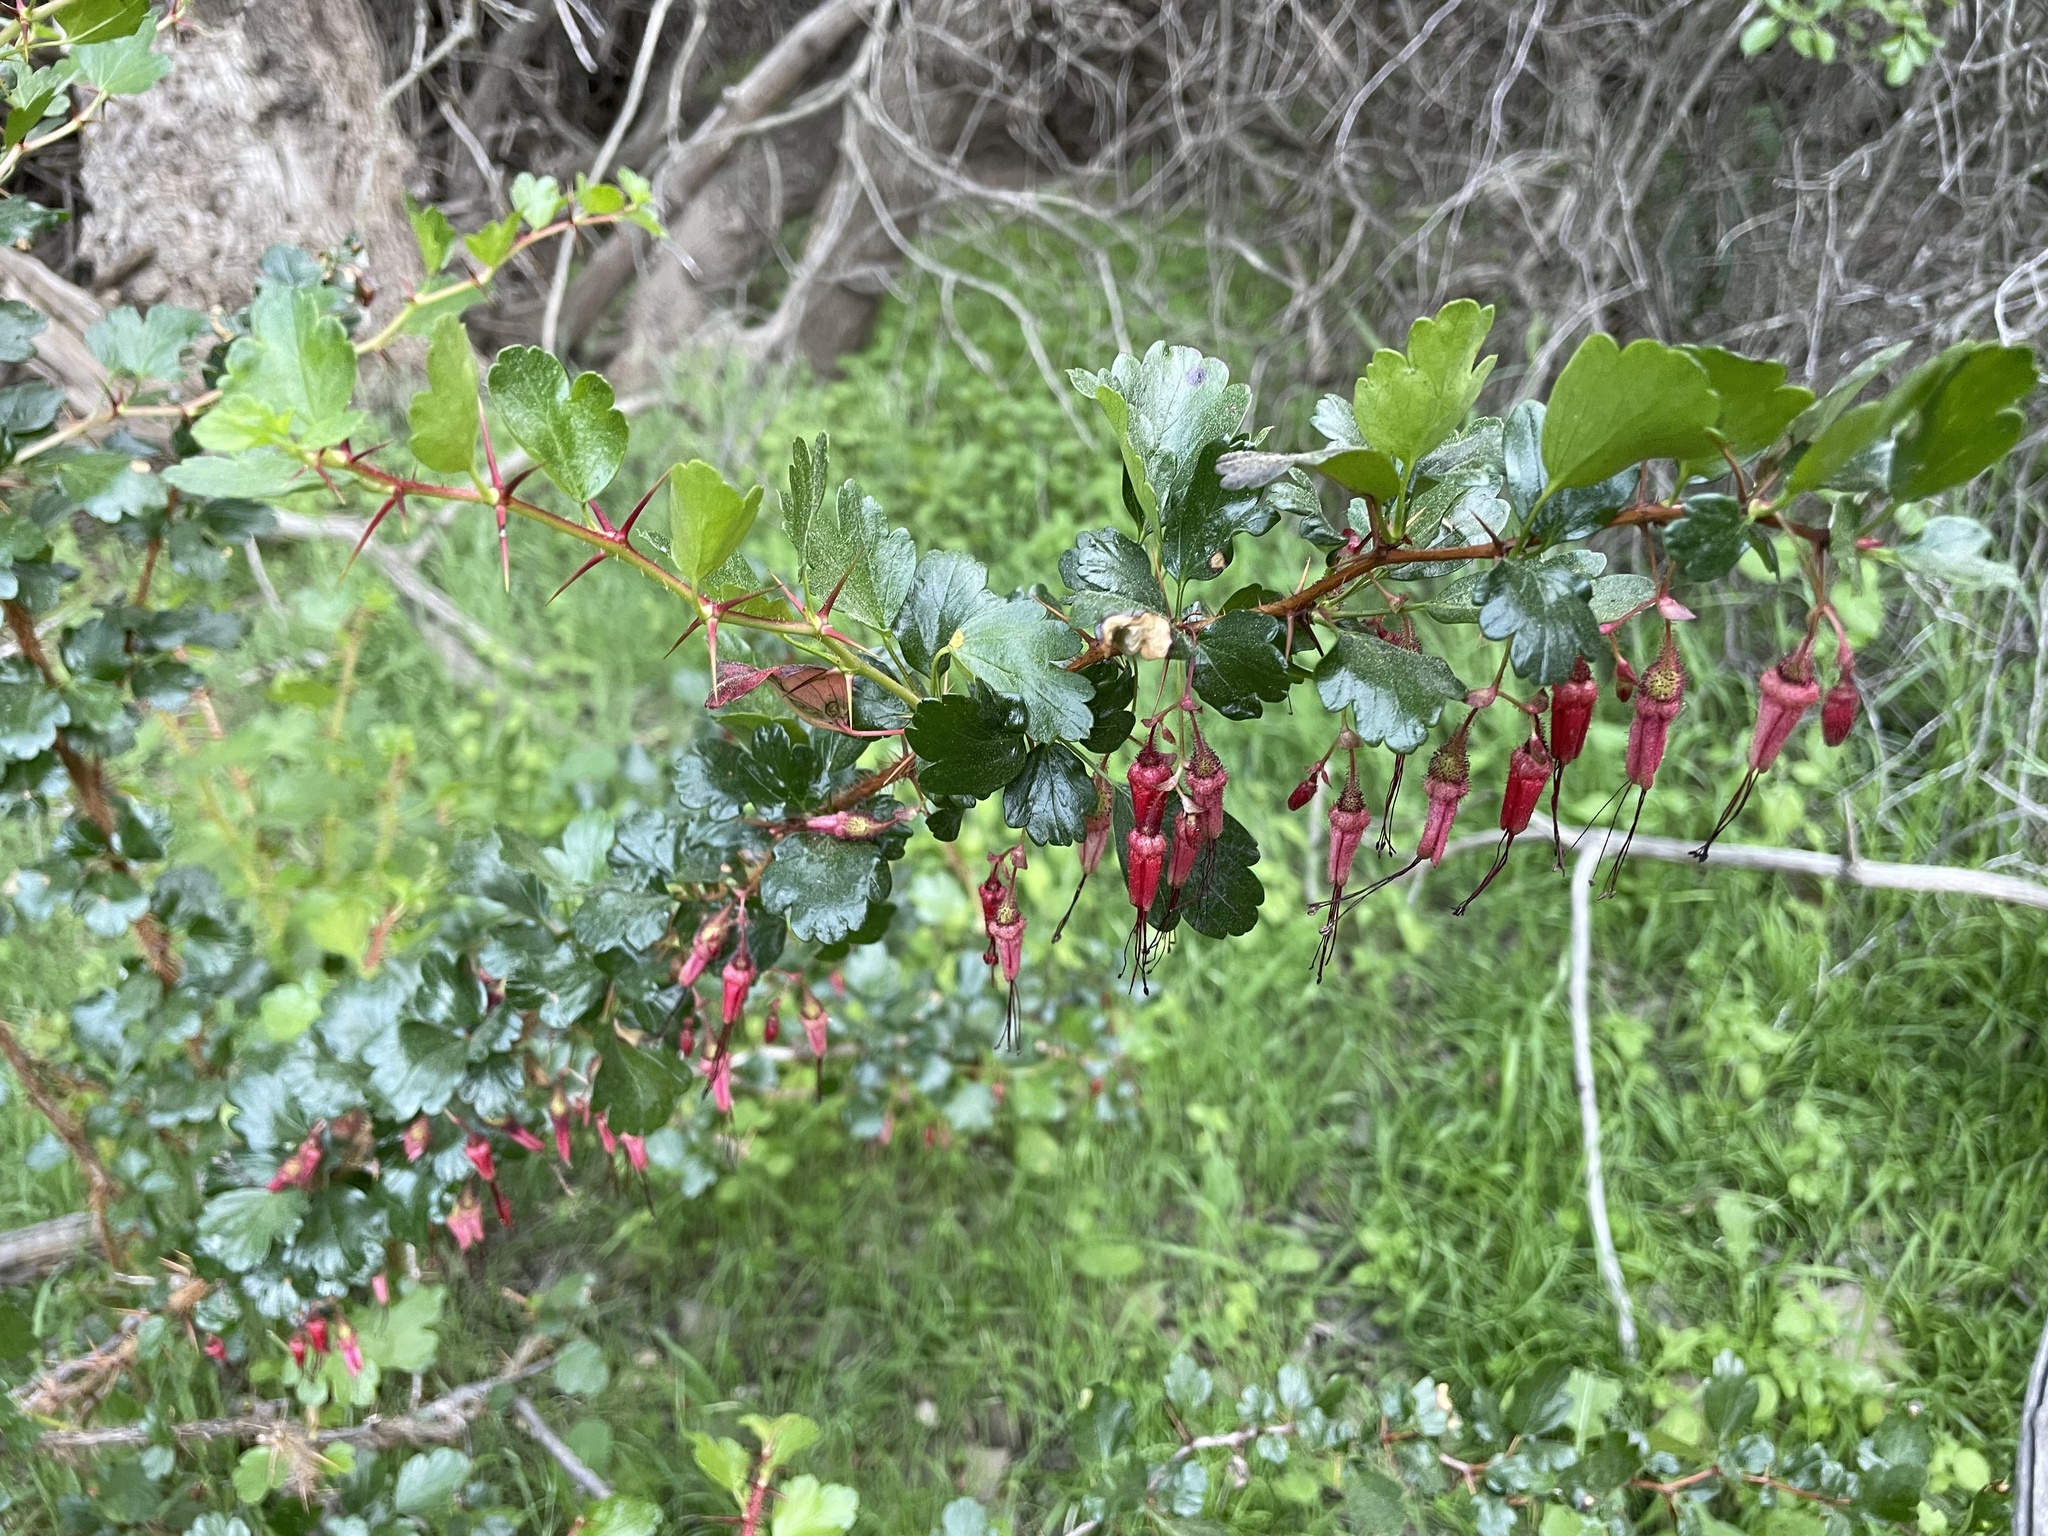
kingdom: Plantae
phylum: Tracheophyta
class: Magnoliopsida
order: Saxifragales
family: Grossulariaceae
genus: Ribes
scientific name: Ribes speciosum
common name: Fuchsia-flower gooseberry
